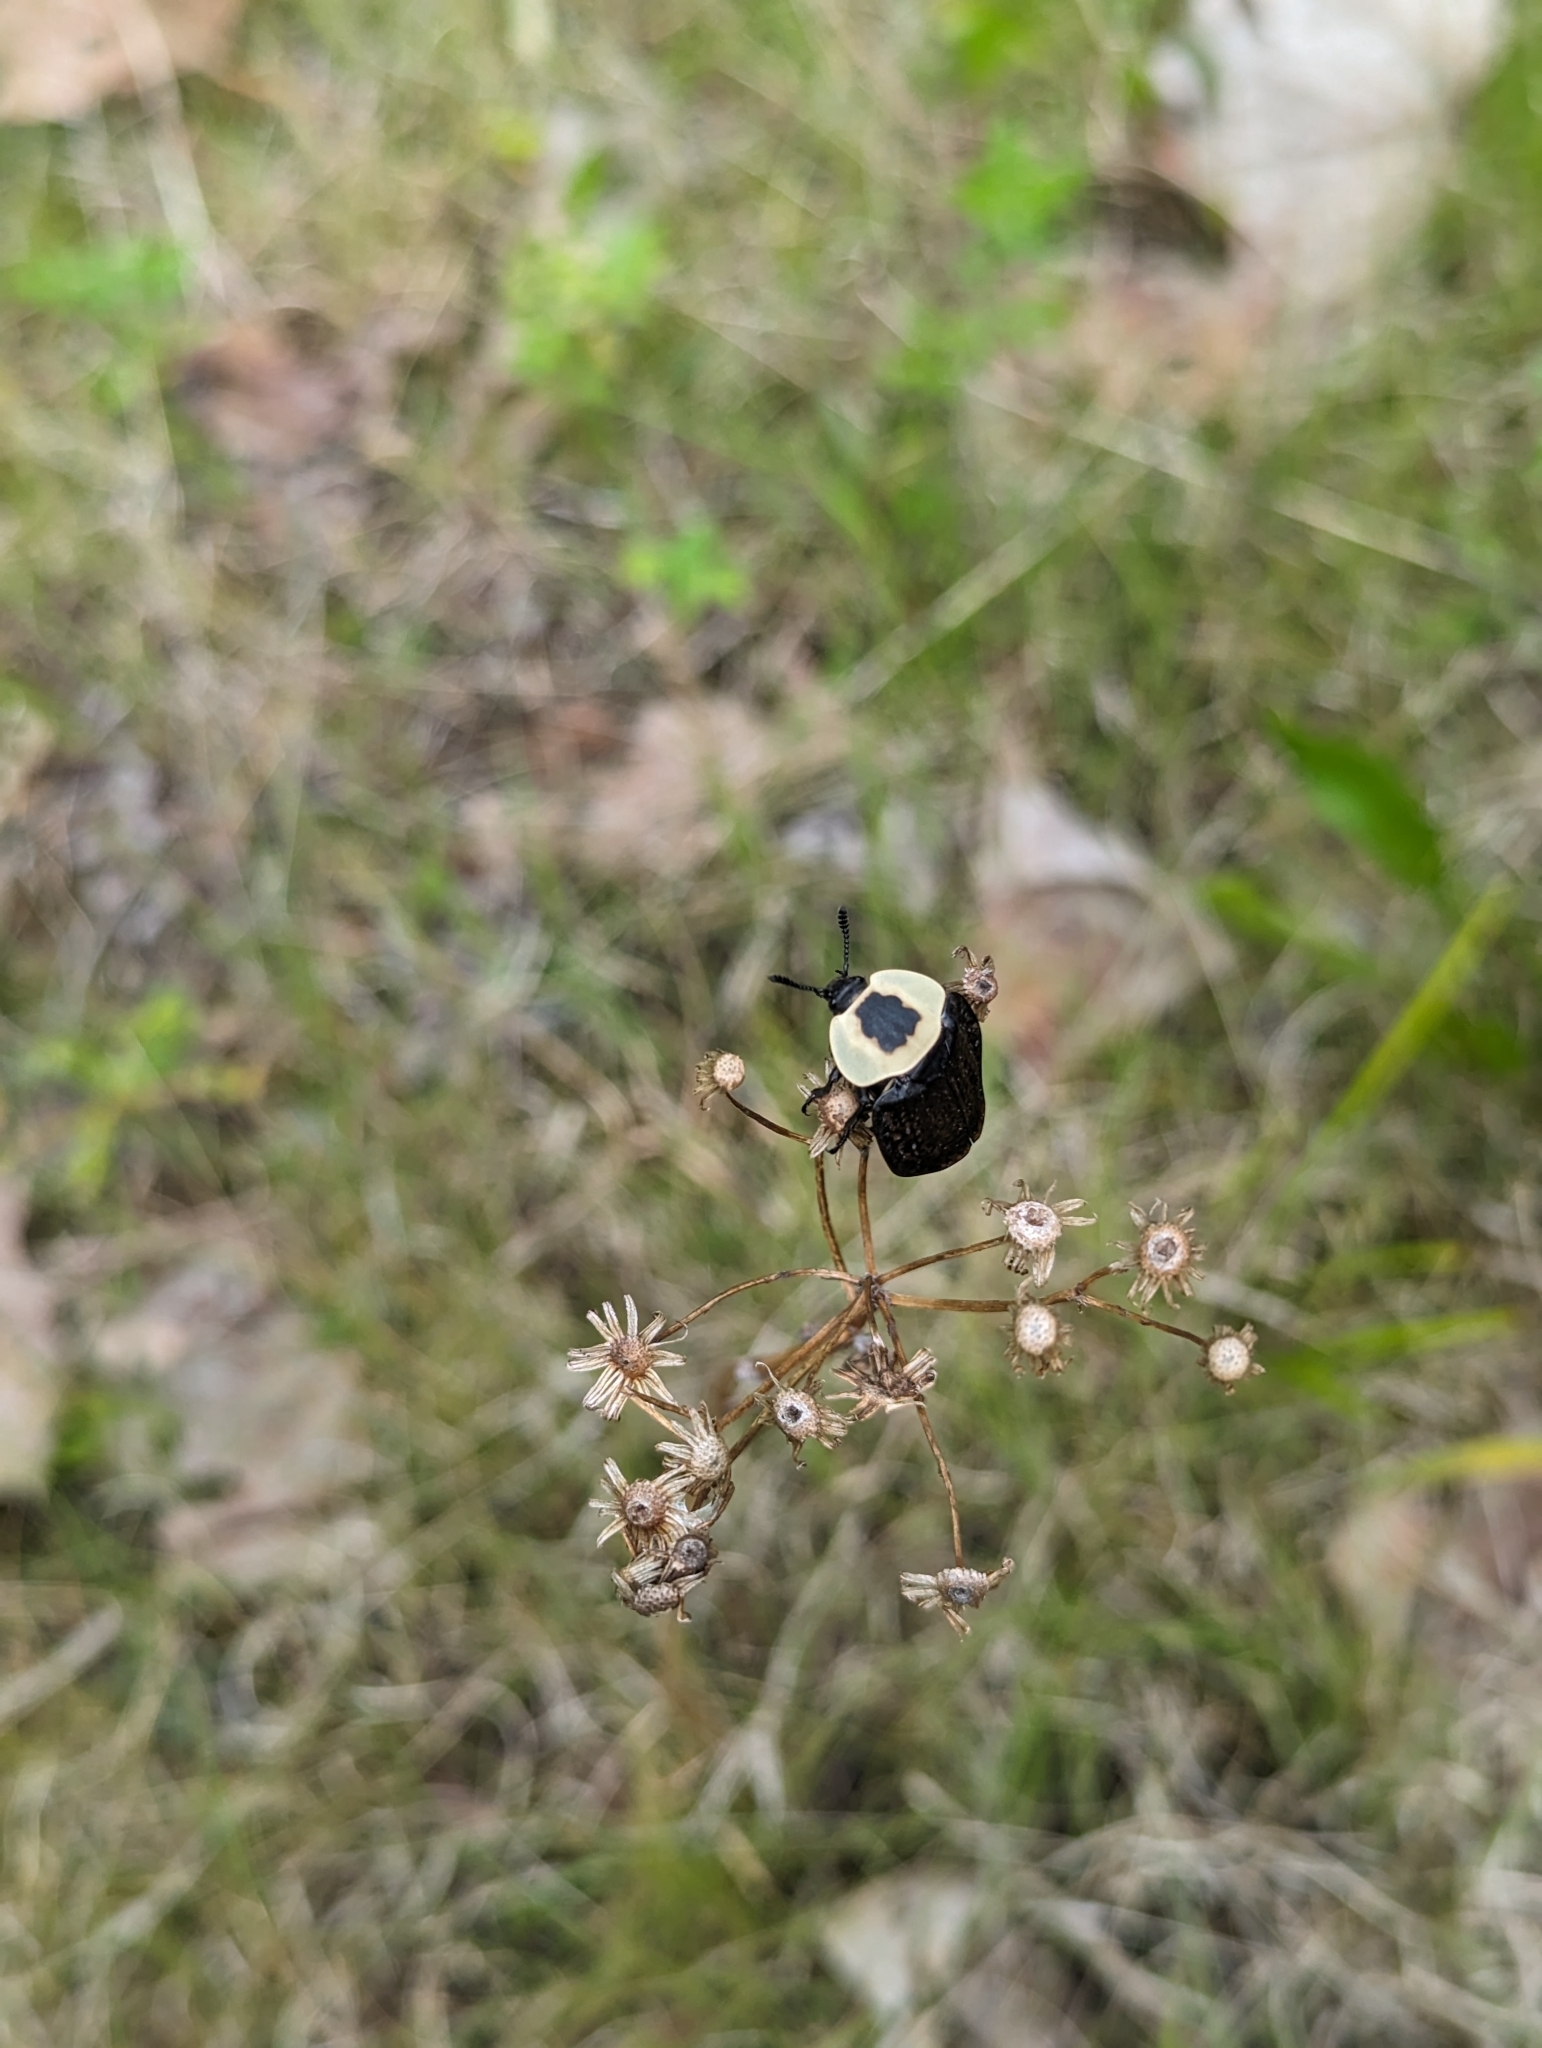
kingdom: Animalia
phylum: Arthropoda
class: Insecta
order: Coleoptera
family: Staphylinidae
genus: Necrophila
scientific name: Necrophila americana
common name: American carrion beetle
